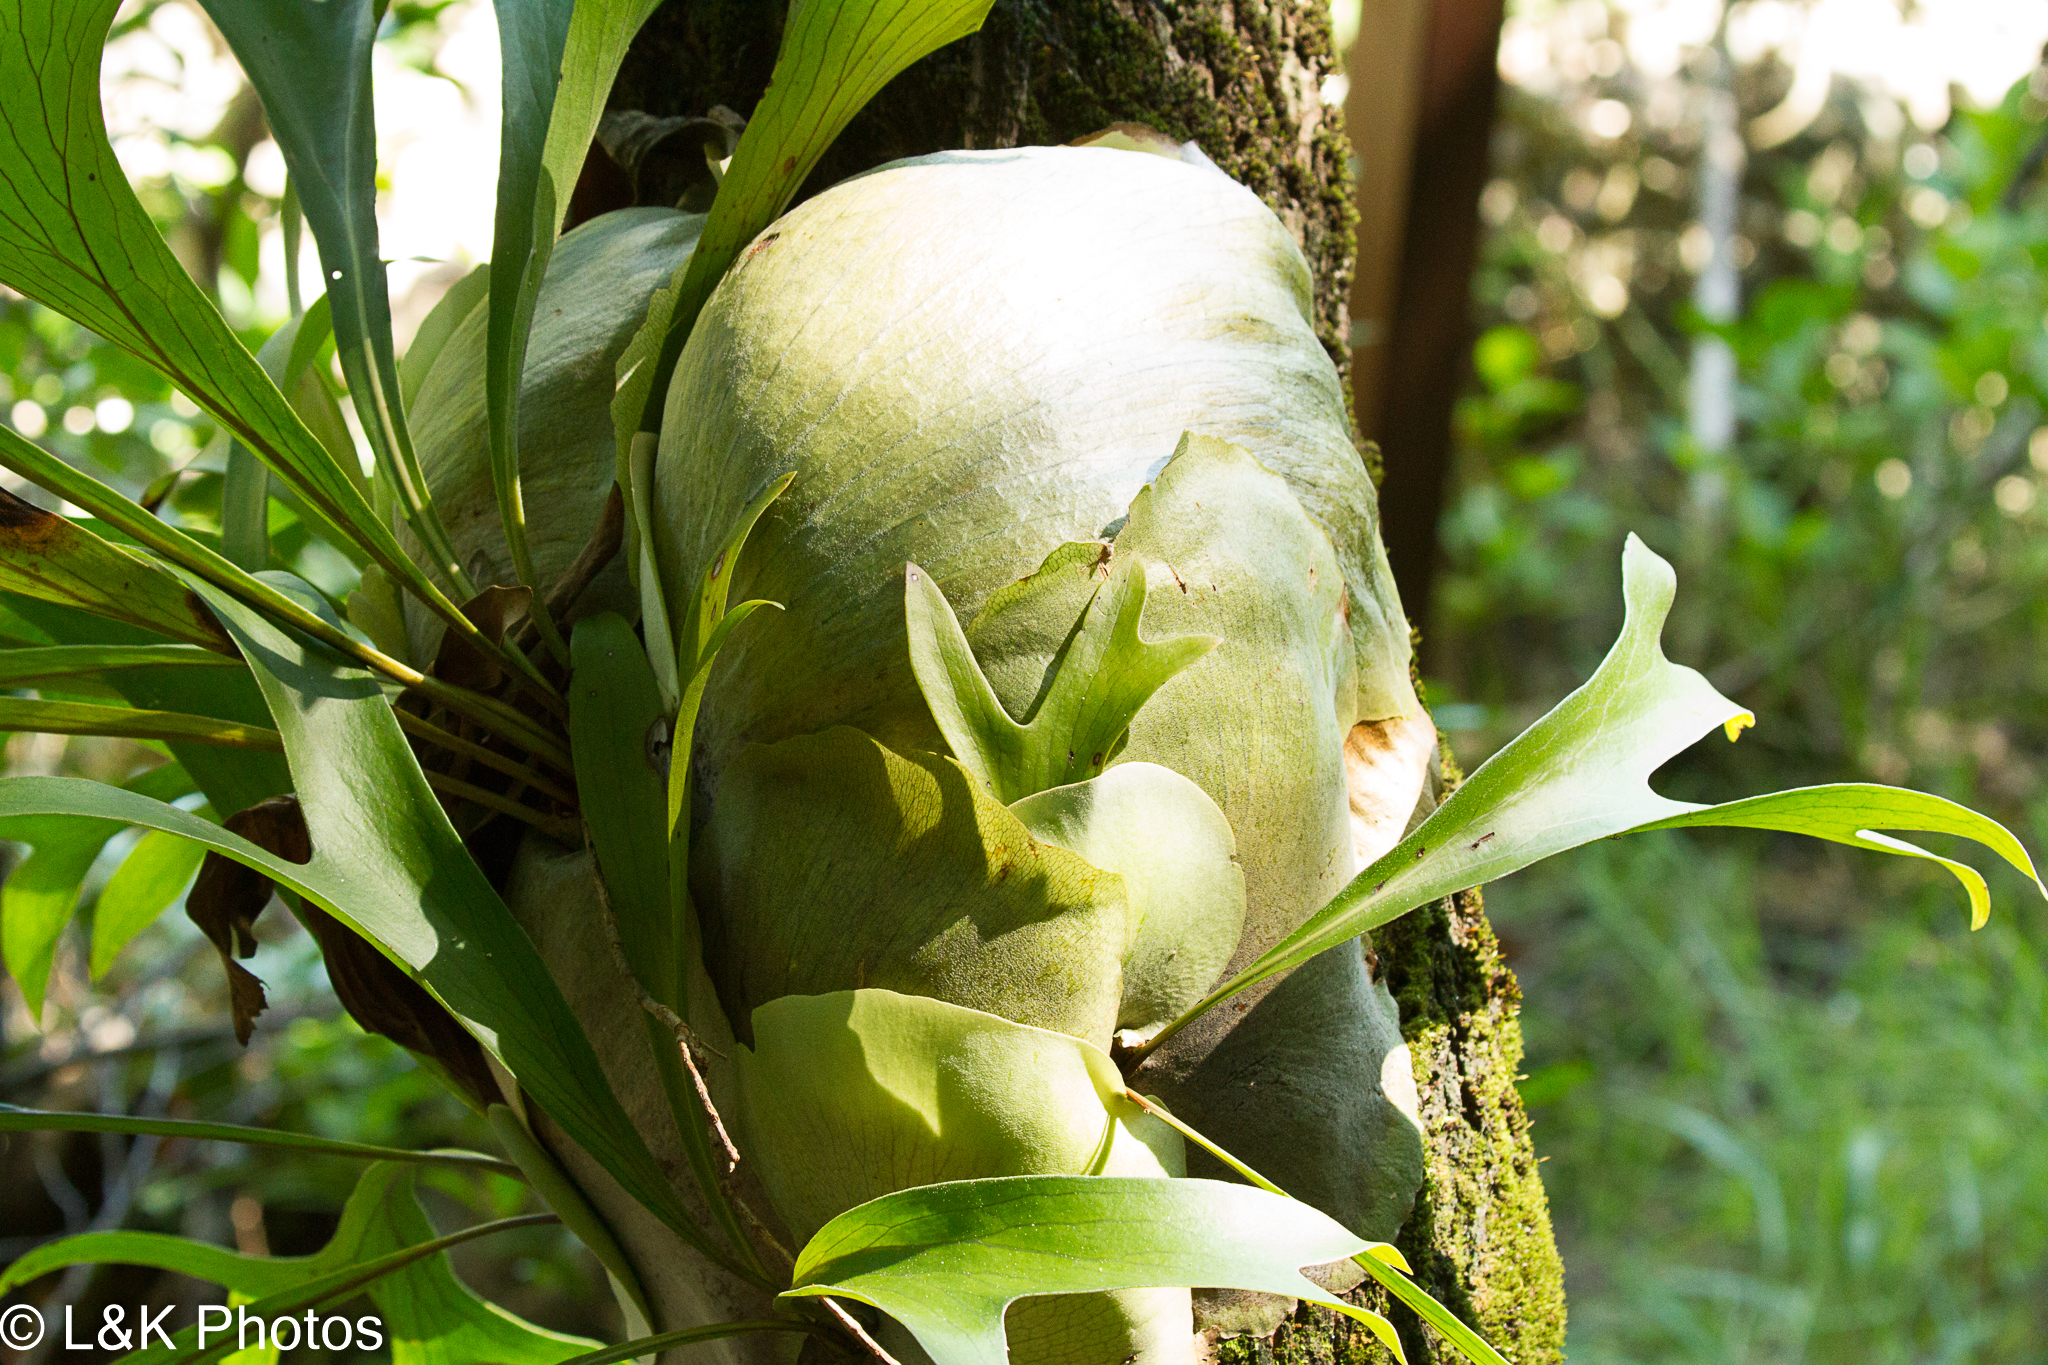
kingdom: Plantae
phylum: Tracheophyta
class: Polypodiopsida
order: Polypodiales
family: Polypodiaceae
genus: Platycerium
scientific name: Platycerium hillii
